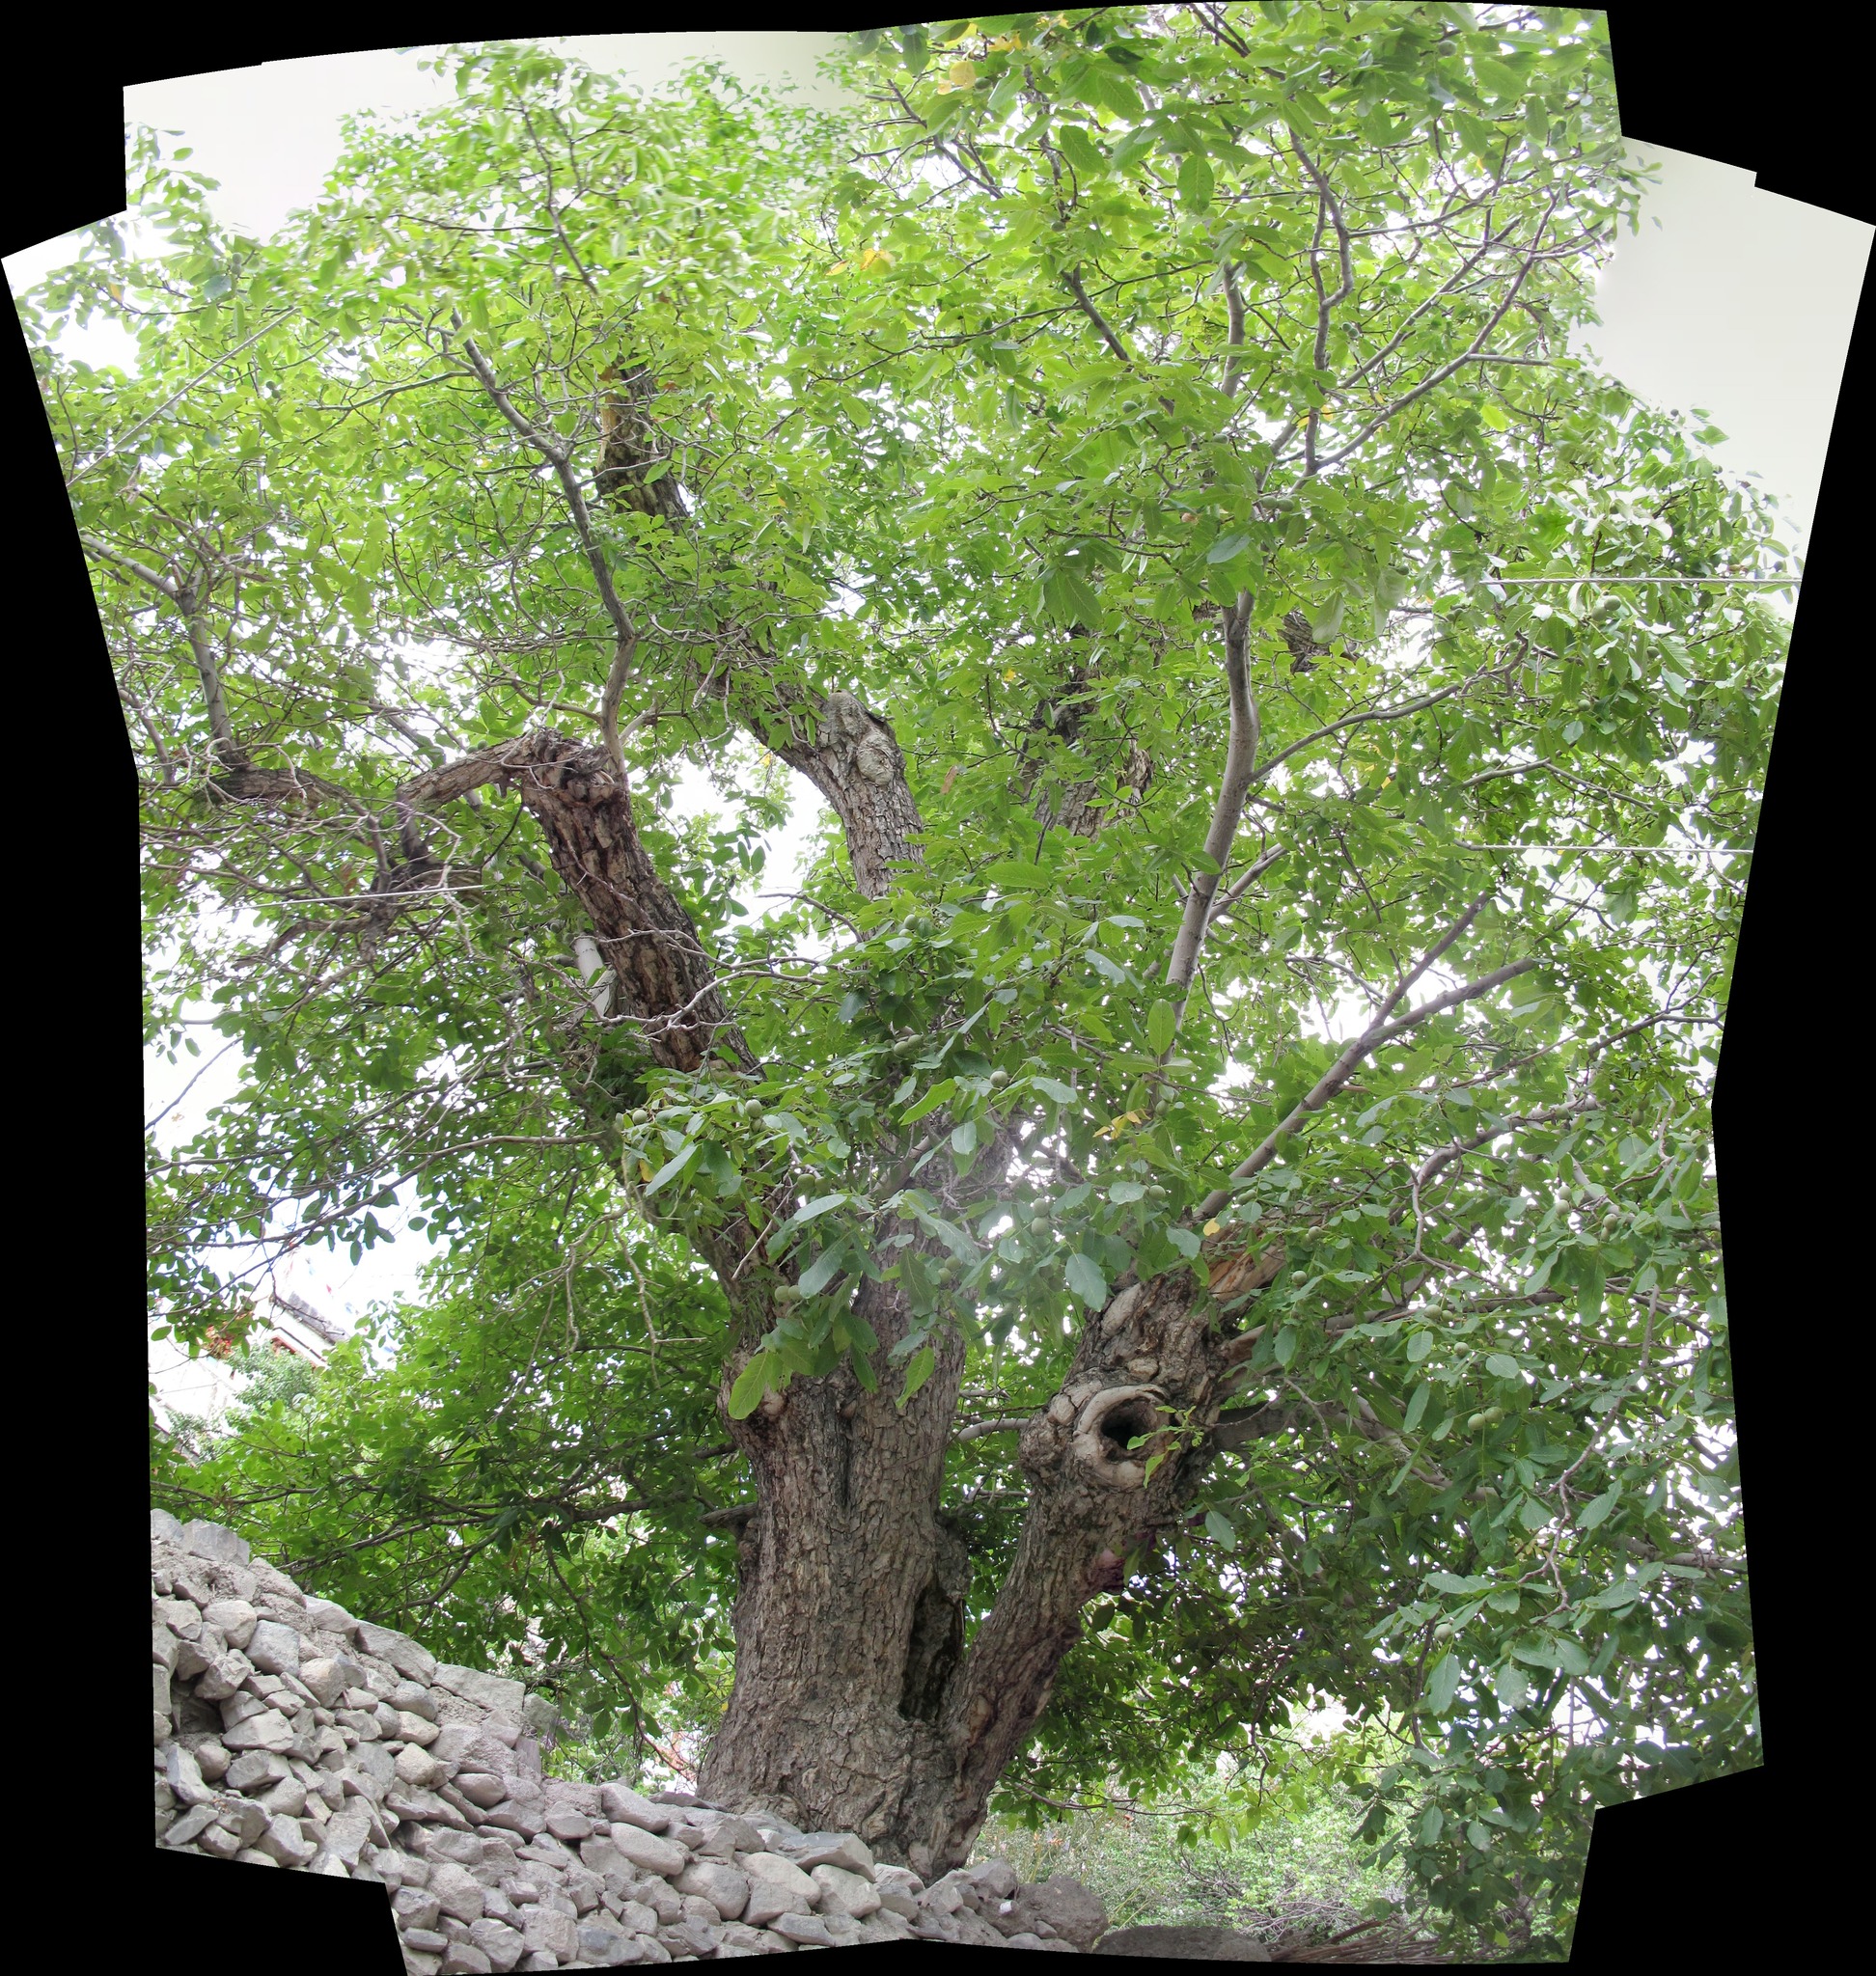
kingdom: Plantae
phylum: Tracheophyta
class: Magnoliopsida
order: Fagales
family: Juglandaceae
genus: Juglans
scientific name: Juglans regia
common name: Walnut
